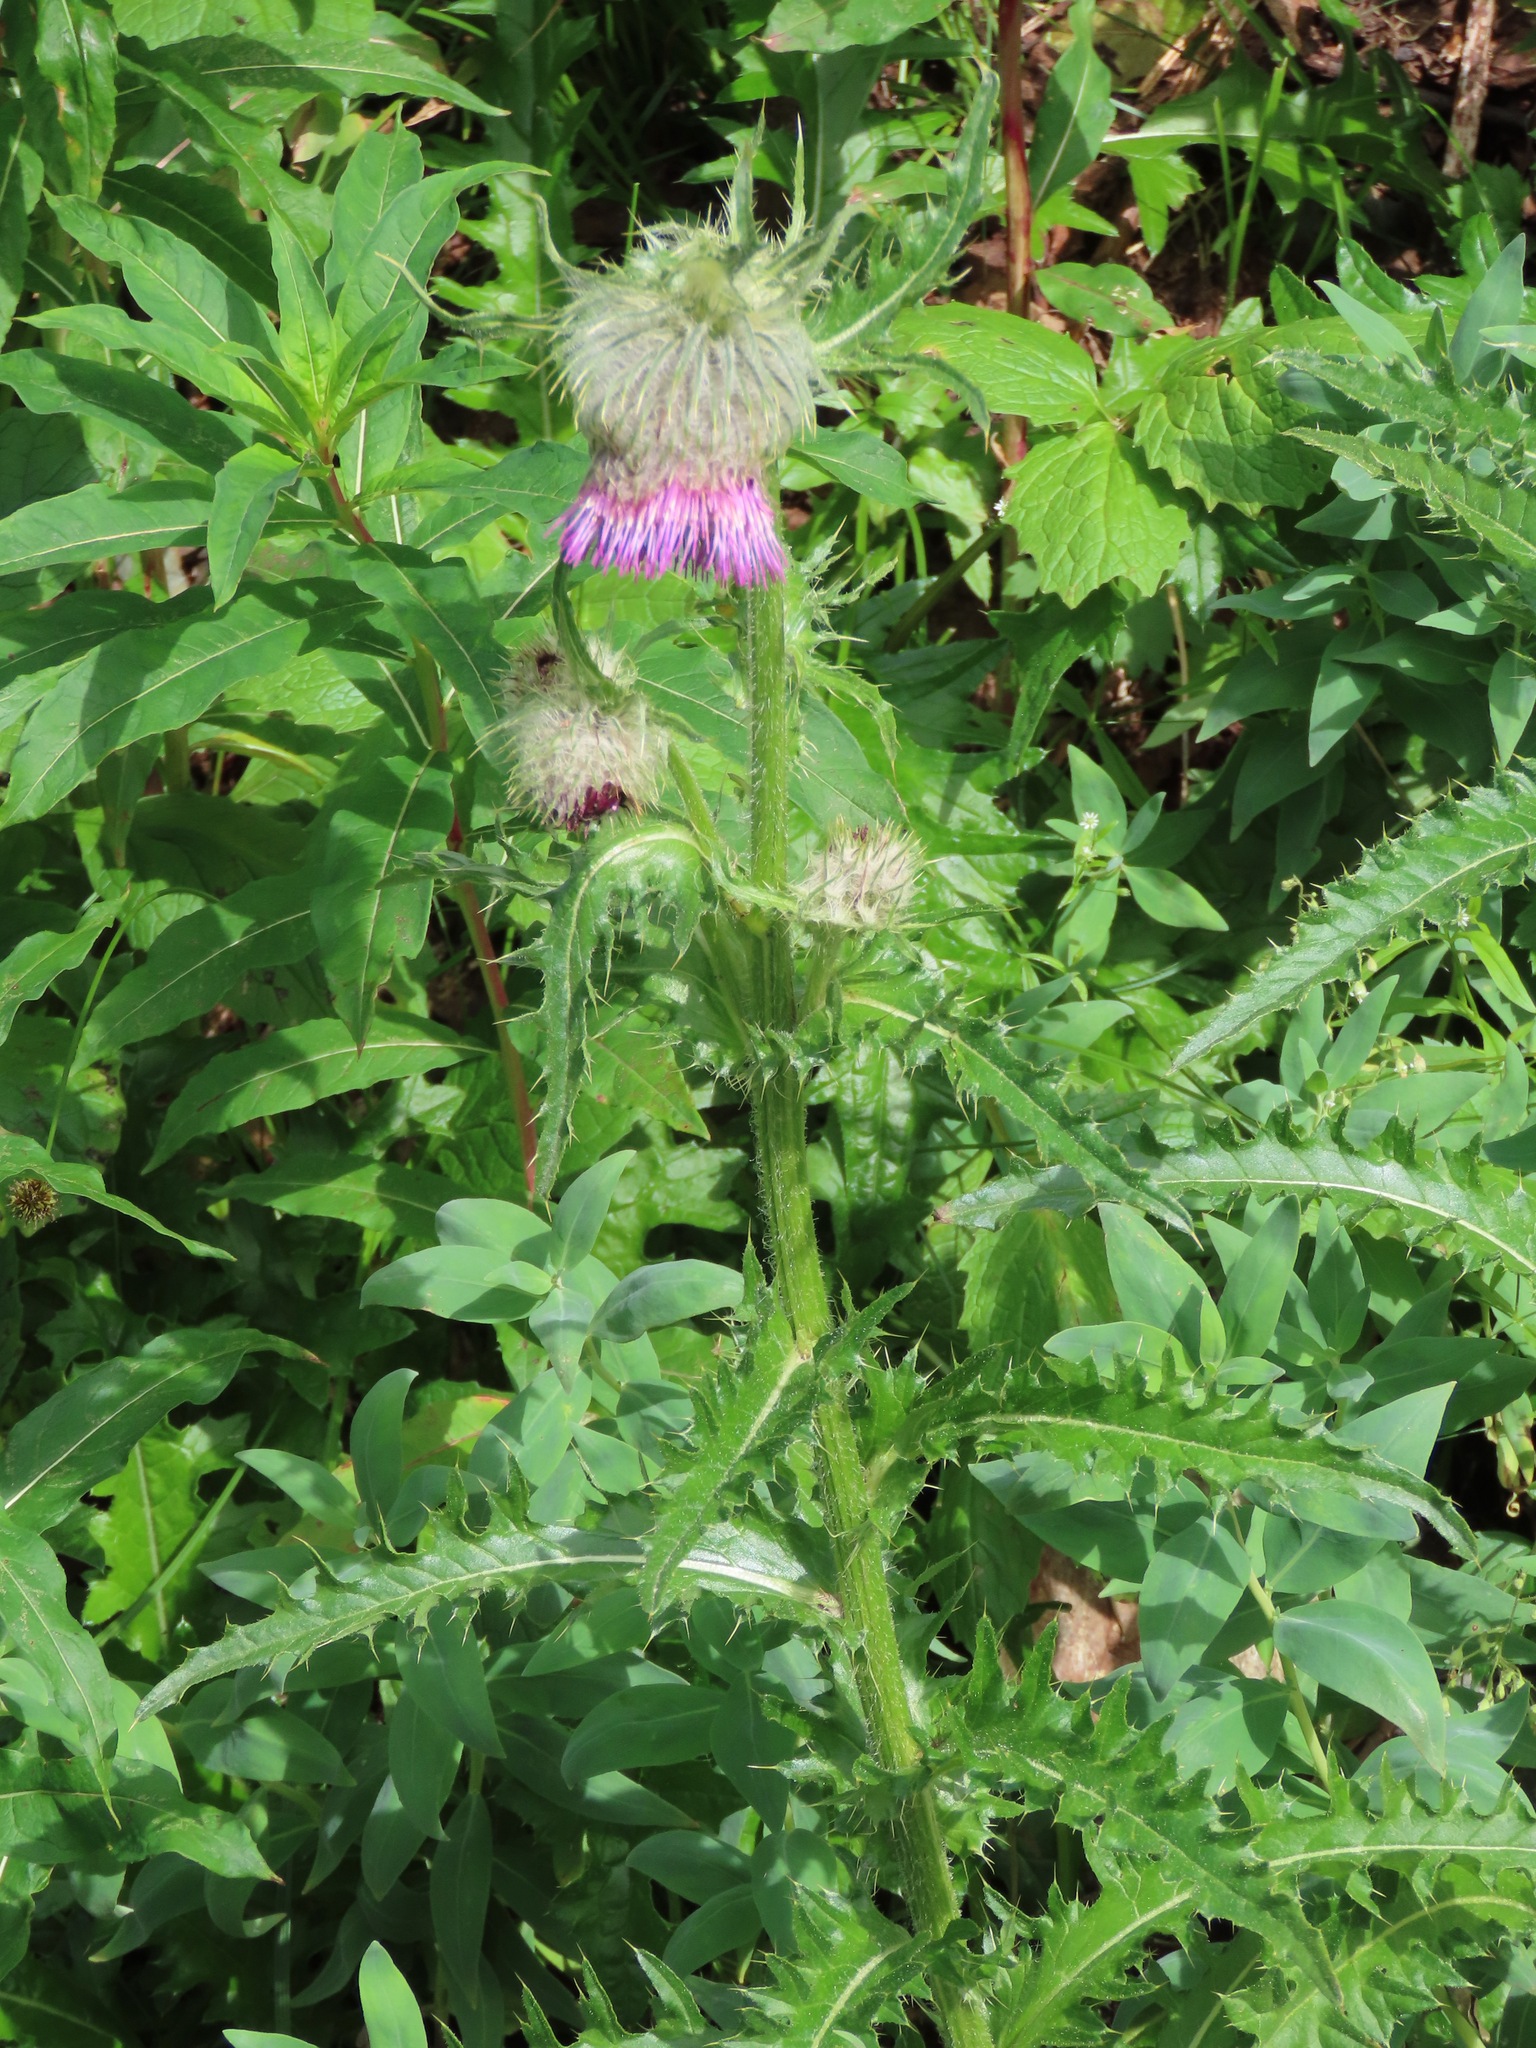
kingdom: Plantae
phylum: Tracheophyta
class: Magnoliopsida
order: Asterales
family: Asteraceae
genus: Cirsium
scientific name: Cirsium edule
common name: Indian thistle
